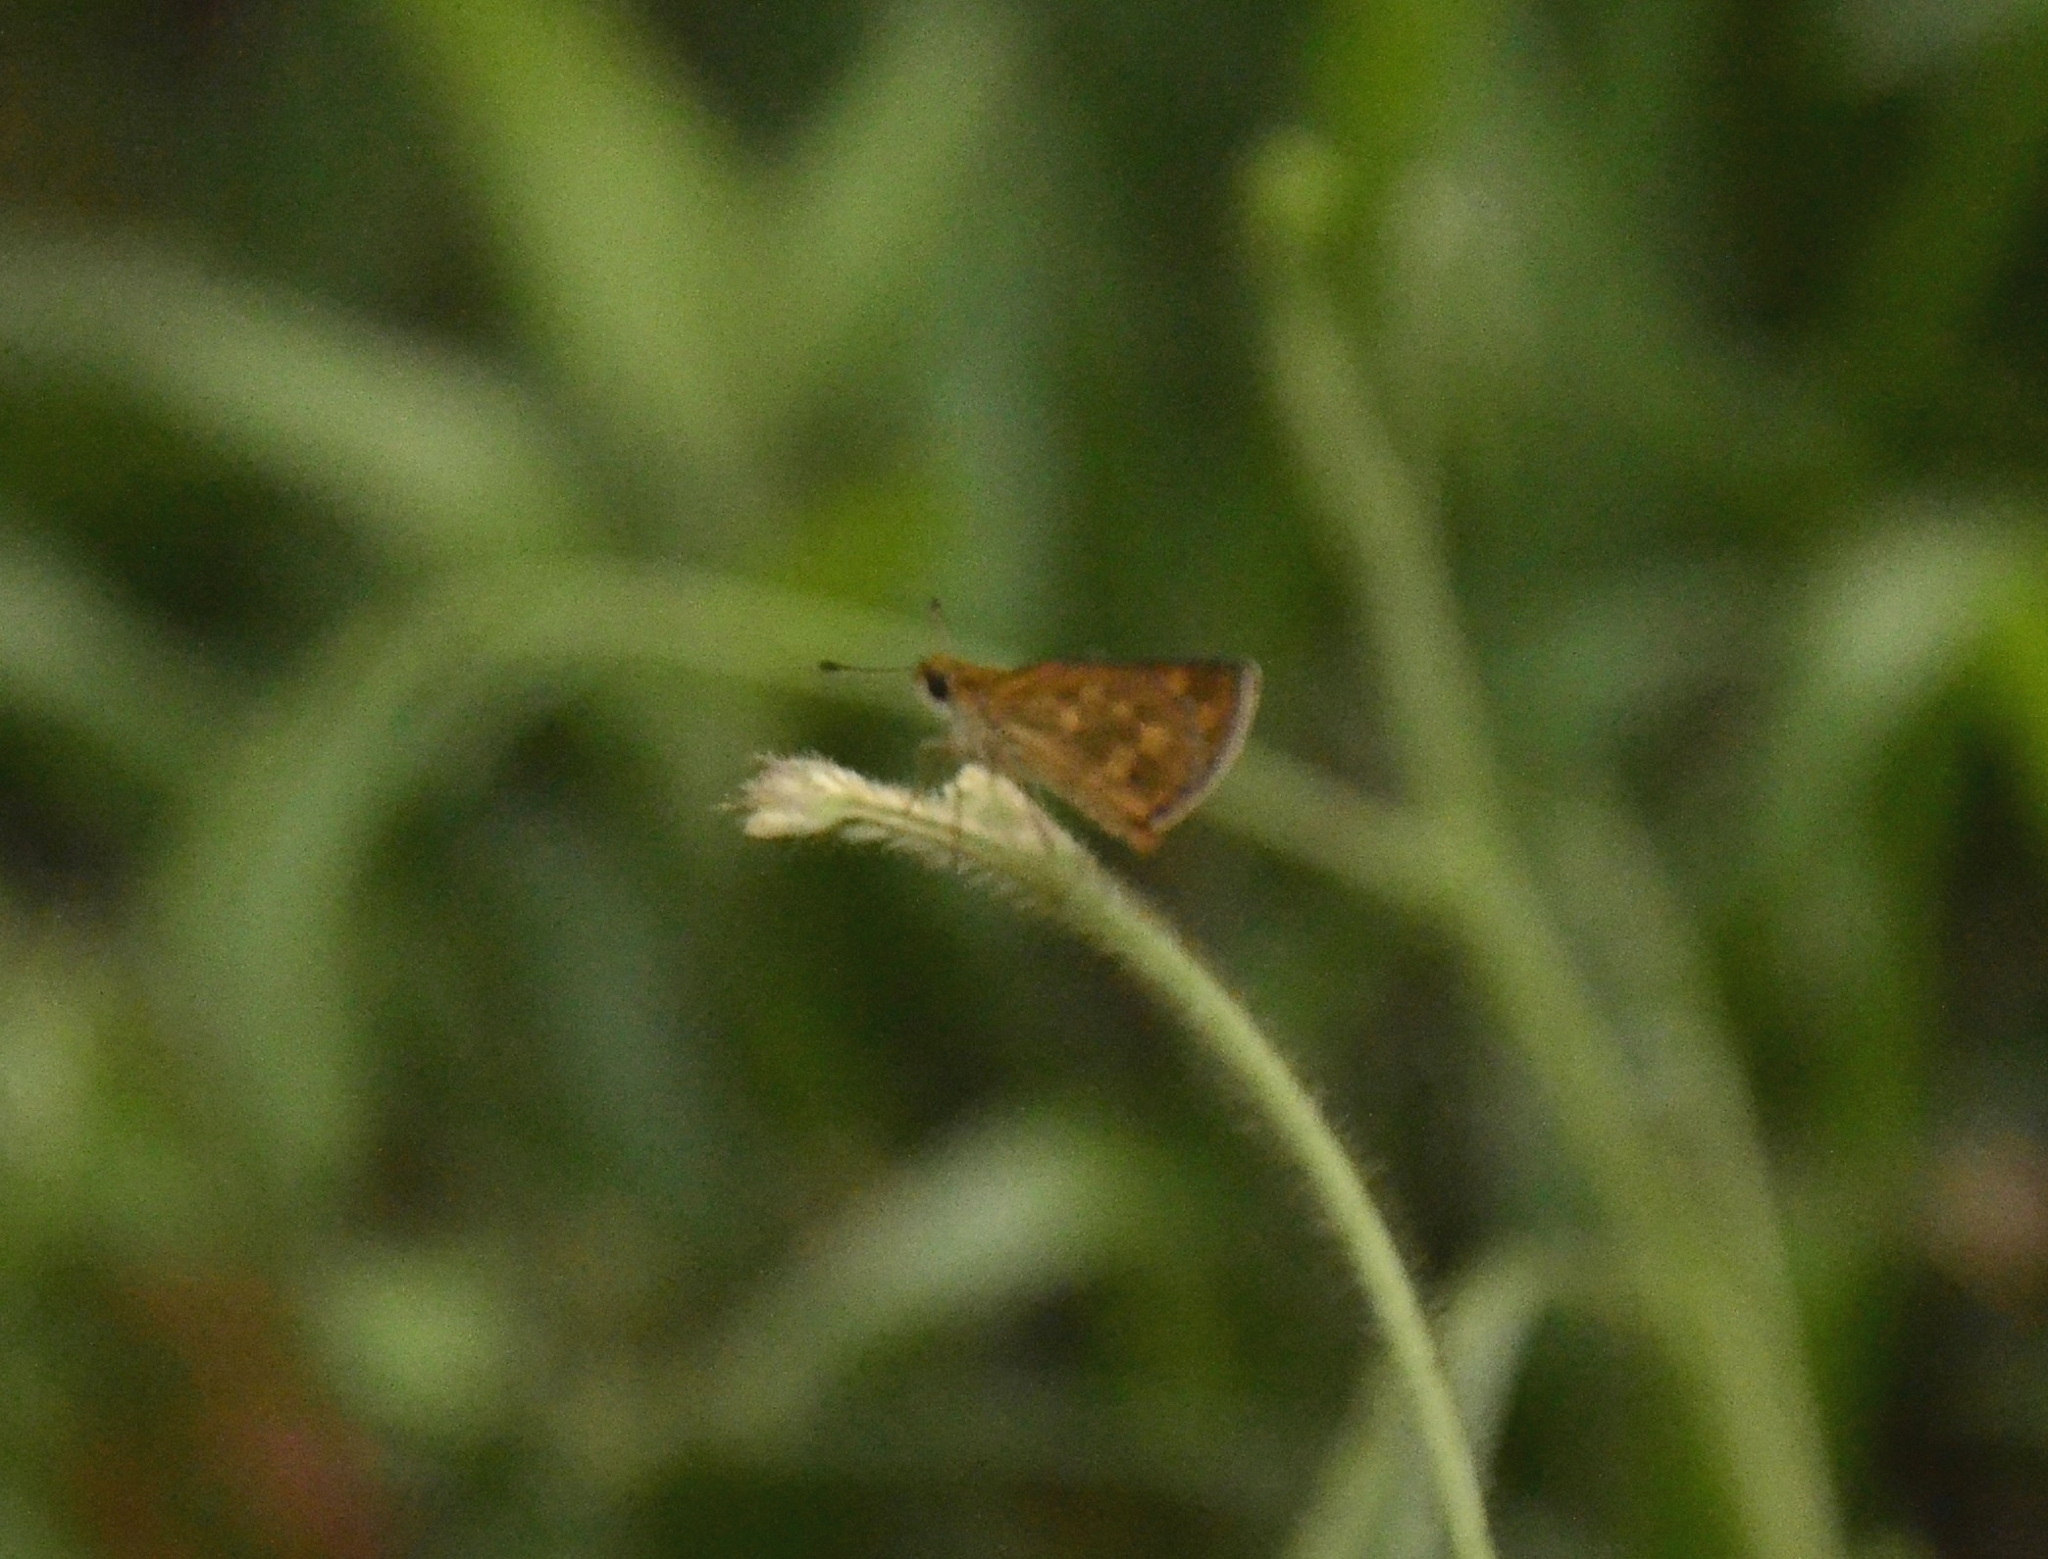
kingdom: Animalia
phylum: Arthropoda
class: Insecta
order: Lepidoptera
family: Hesperiidae
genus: Taractrocera
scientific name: Taractrocera ceramas
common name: Tamil grass dart
